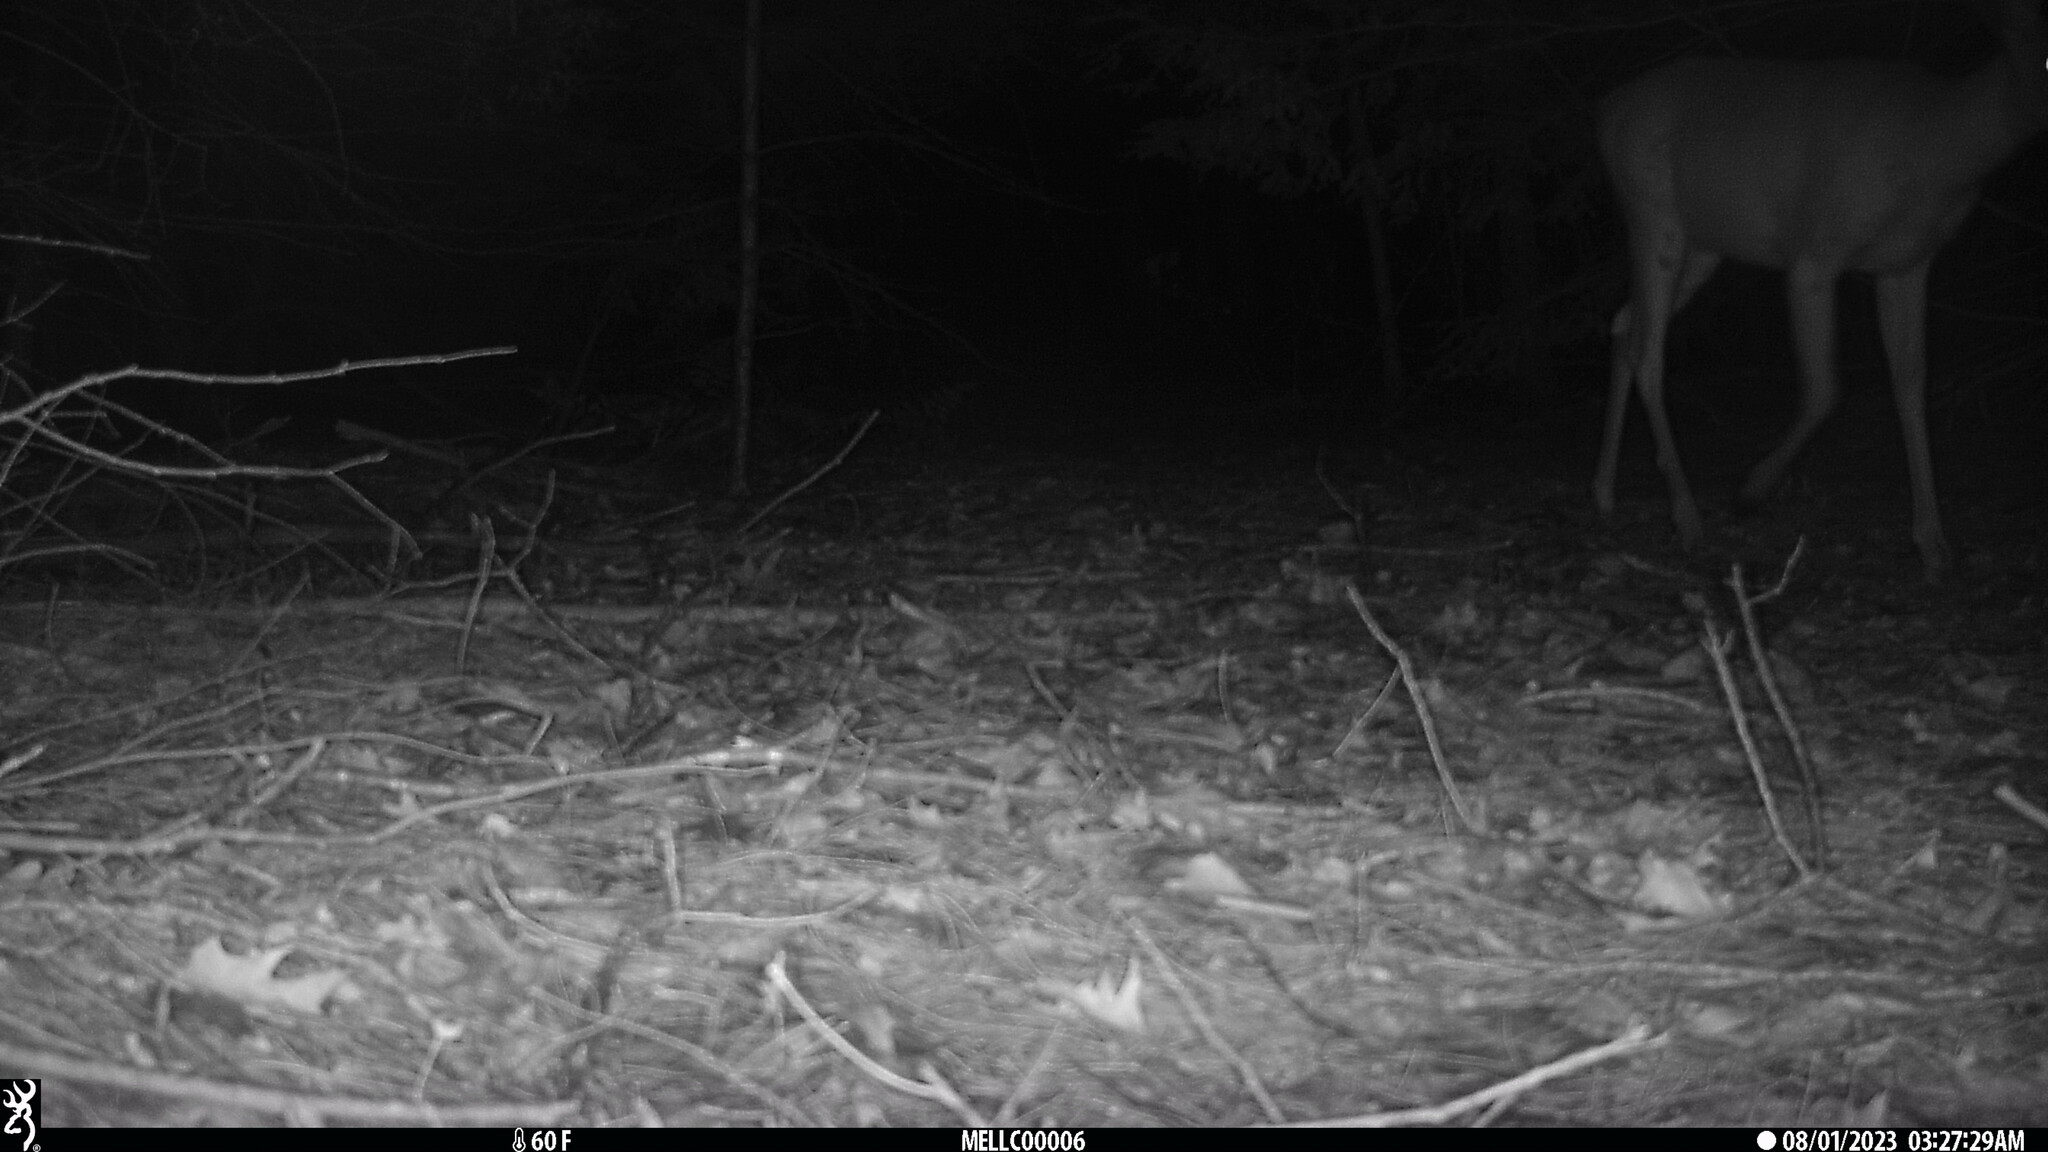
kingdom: Animalia
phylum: Chordata
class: Mammalia
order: Artiodactyla
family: Cervidae
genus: Odocoileus
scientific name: Odocoileus virginianus
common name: White-tailed deer
